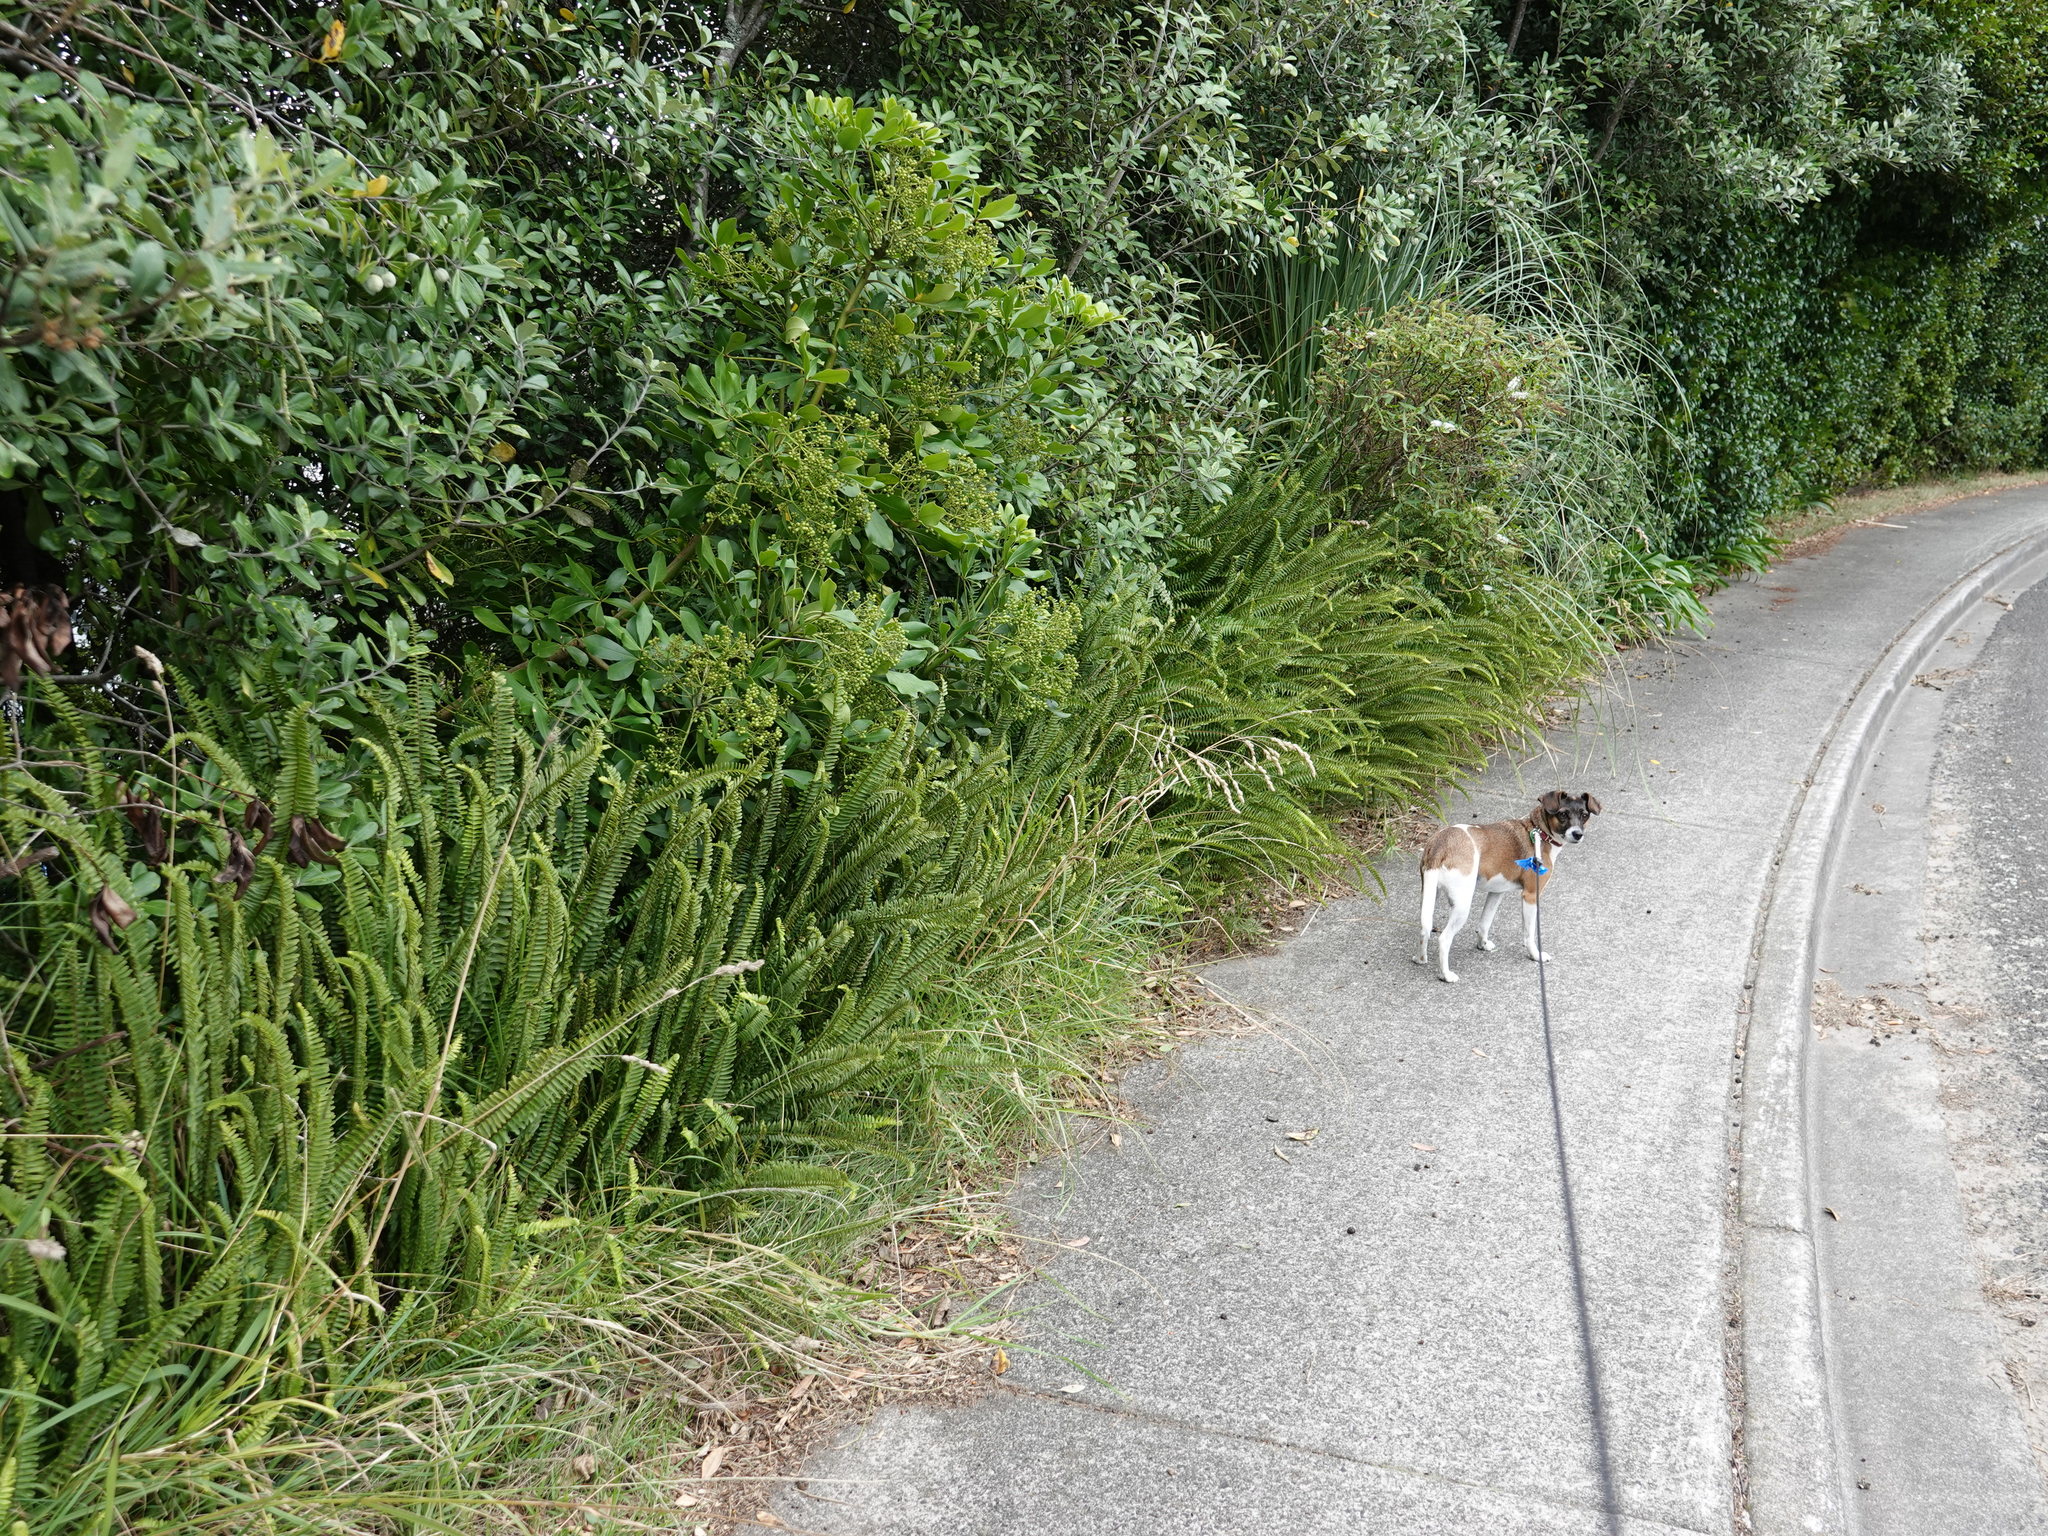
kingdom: Plantae
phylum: Tracheophyta
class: Polypodiopsida
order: Polypodiales
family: Nephrolepidaceae
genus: Nephrolepis
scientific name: Nephrolepis cordifolia
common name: Narrow swordfern
